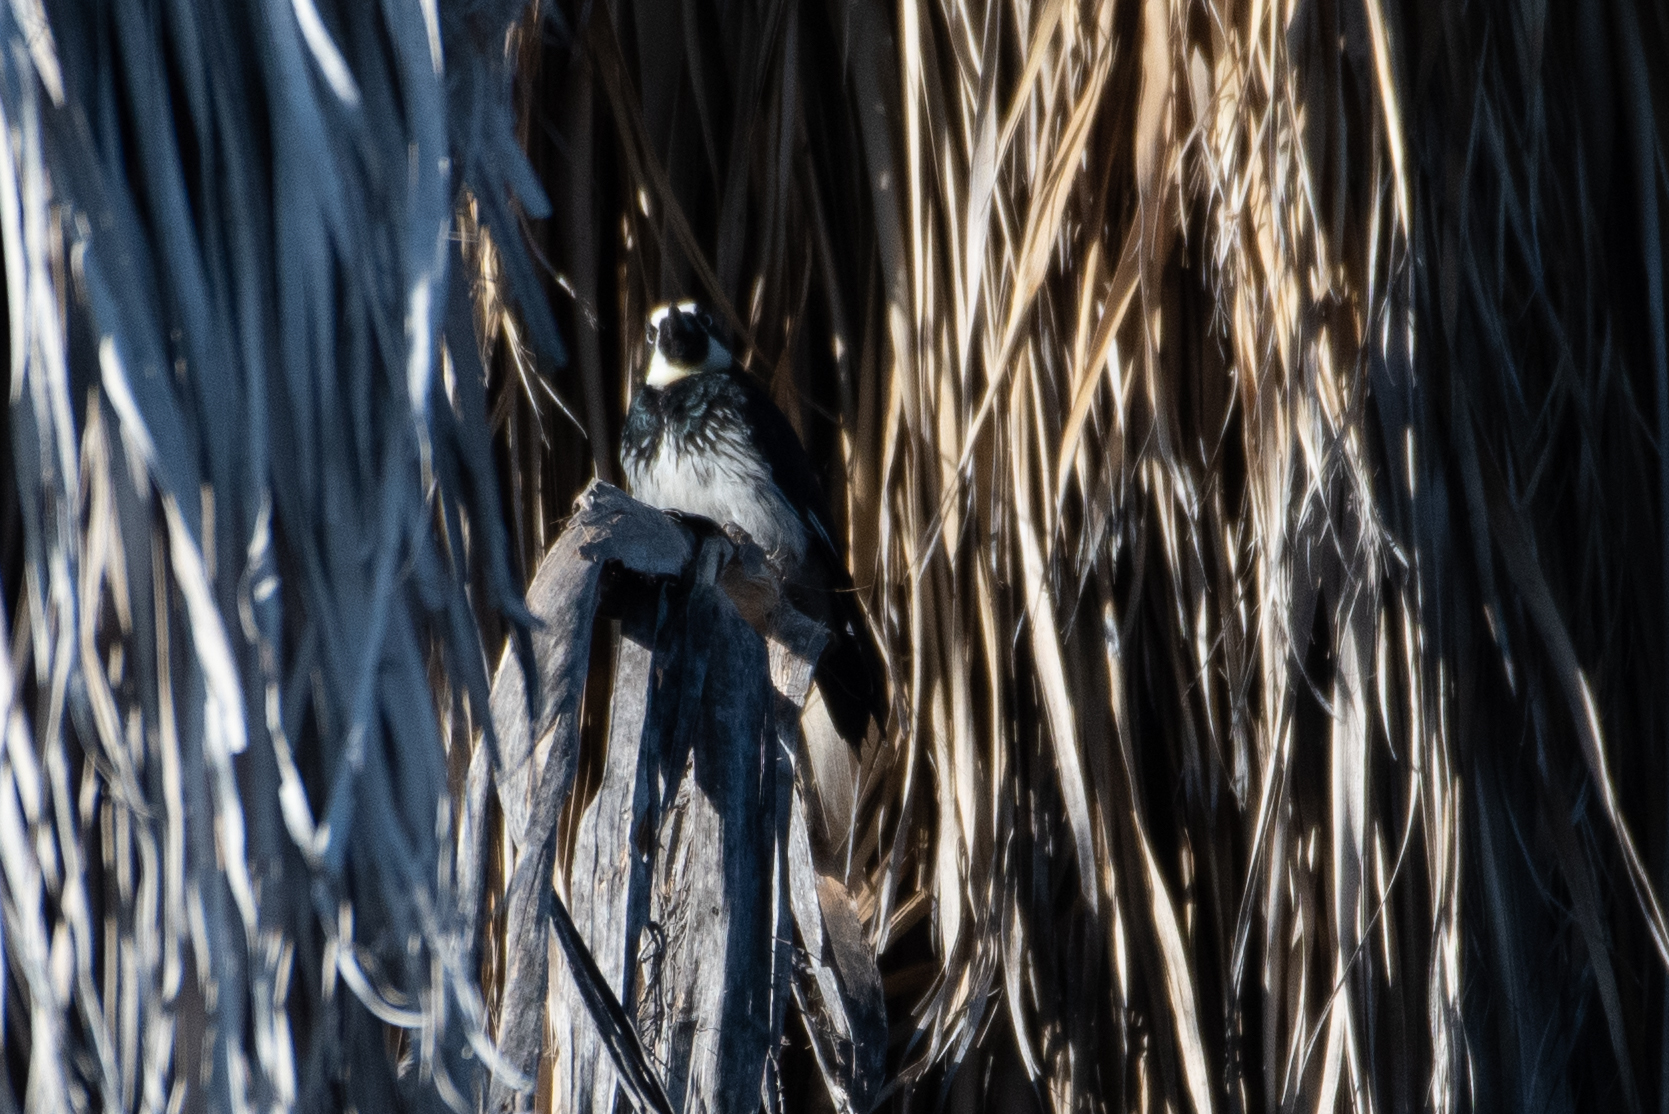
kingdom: Animalia
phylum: Chordata
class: Aves
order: Piciformes
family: Picidae
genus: Melanerpes
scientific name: Melanerpes formicivorus
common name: Acorn woodpecker
